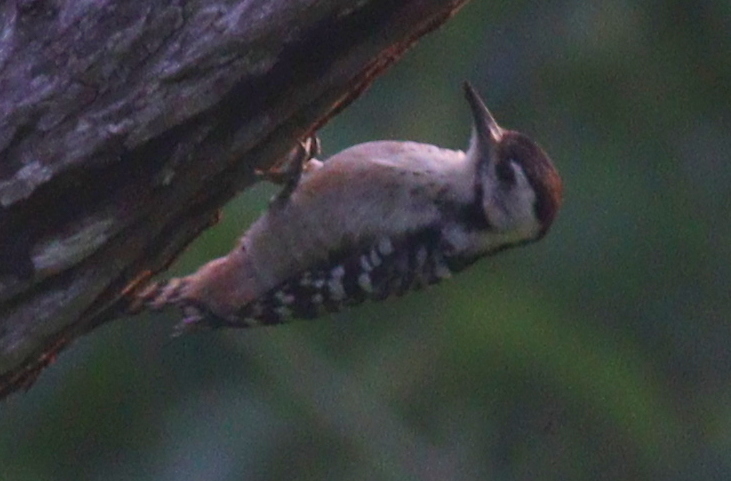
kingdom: Animalia
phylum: Chordata
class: Aves
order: Piciformes
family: Picidae
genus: Dendrocopos
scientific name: Dendrocopos analis
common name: Freckle-breasted woodpecker
